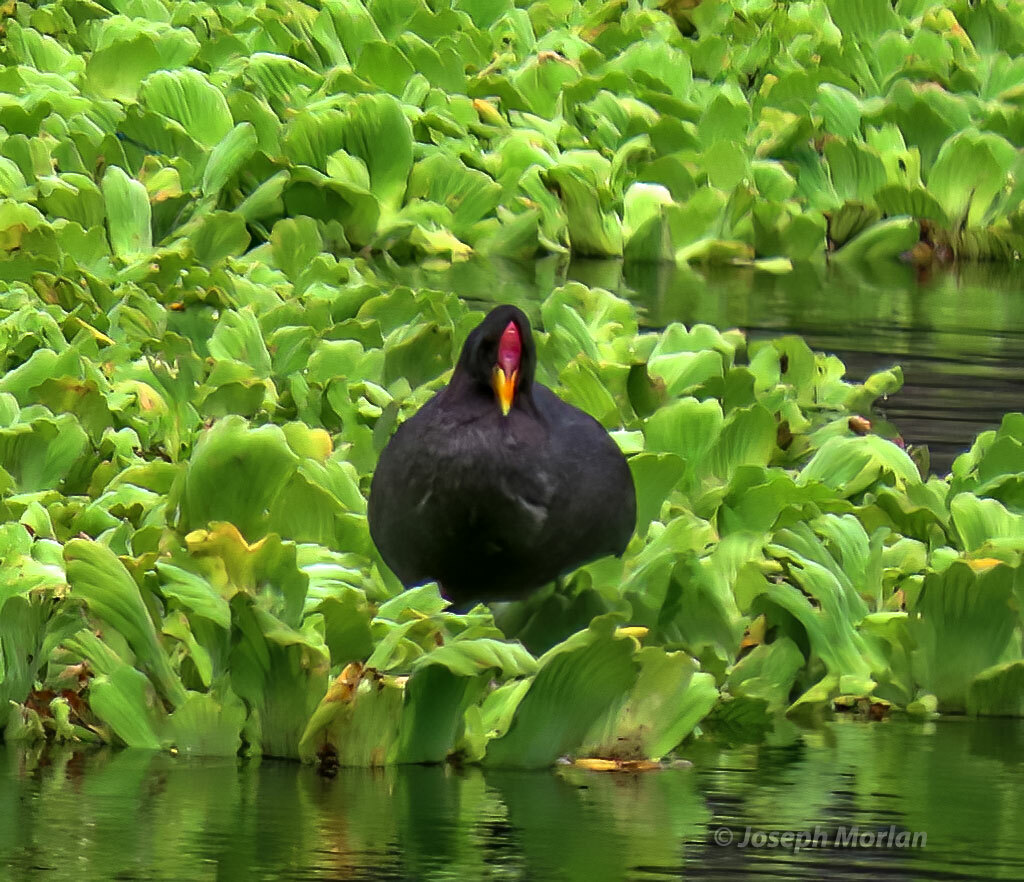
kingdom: Animalia
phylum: Chordata
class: Aves
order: Gruiformes
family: Rallidae
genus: Fulica
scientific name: Fulica rufifrons
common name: Red-fronted coot
